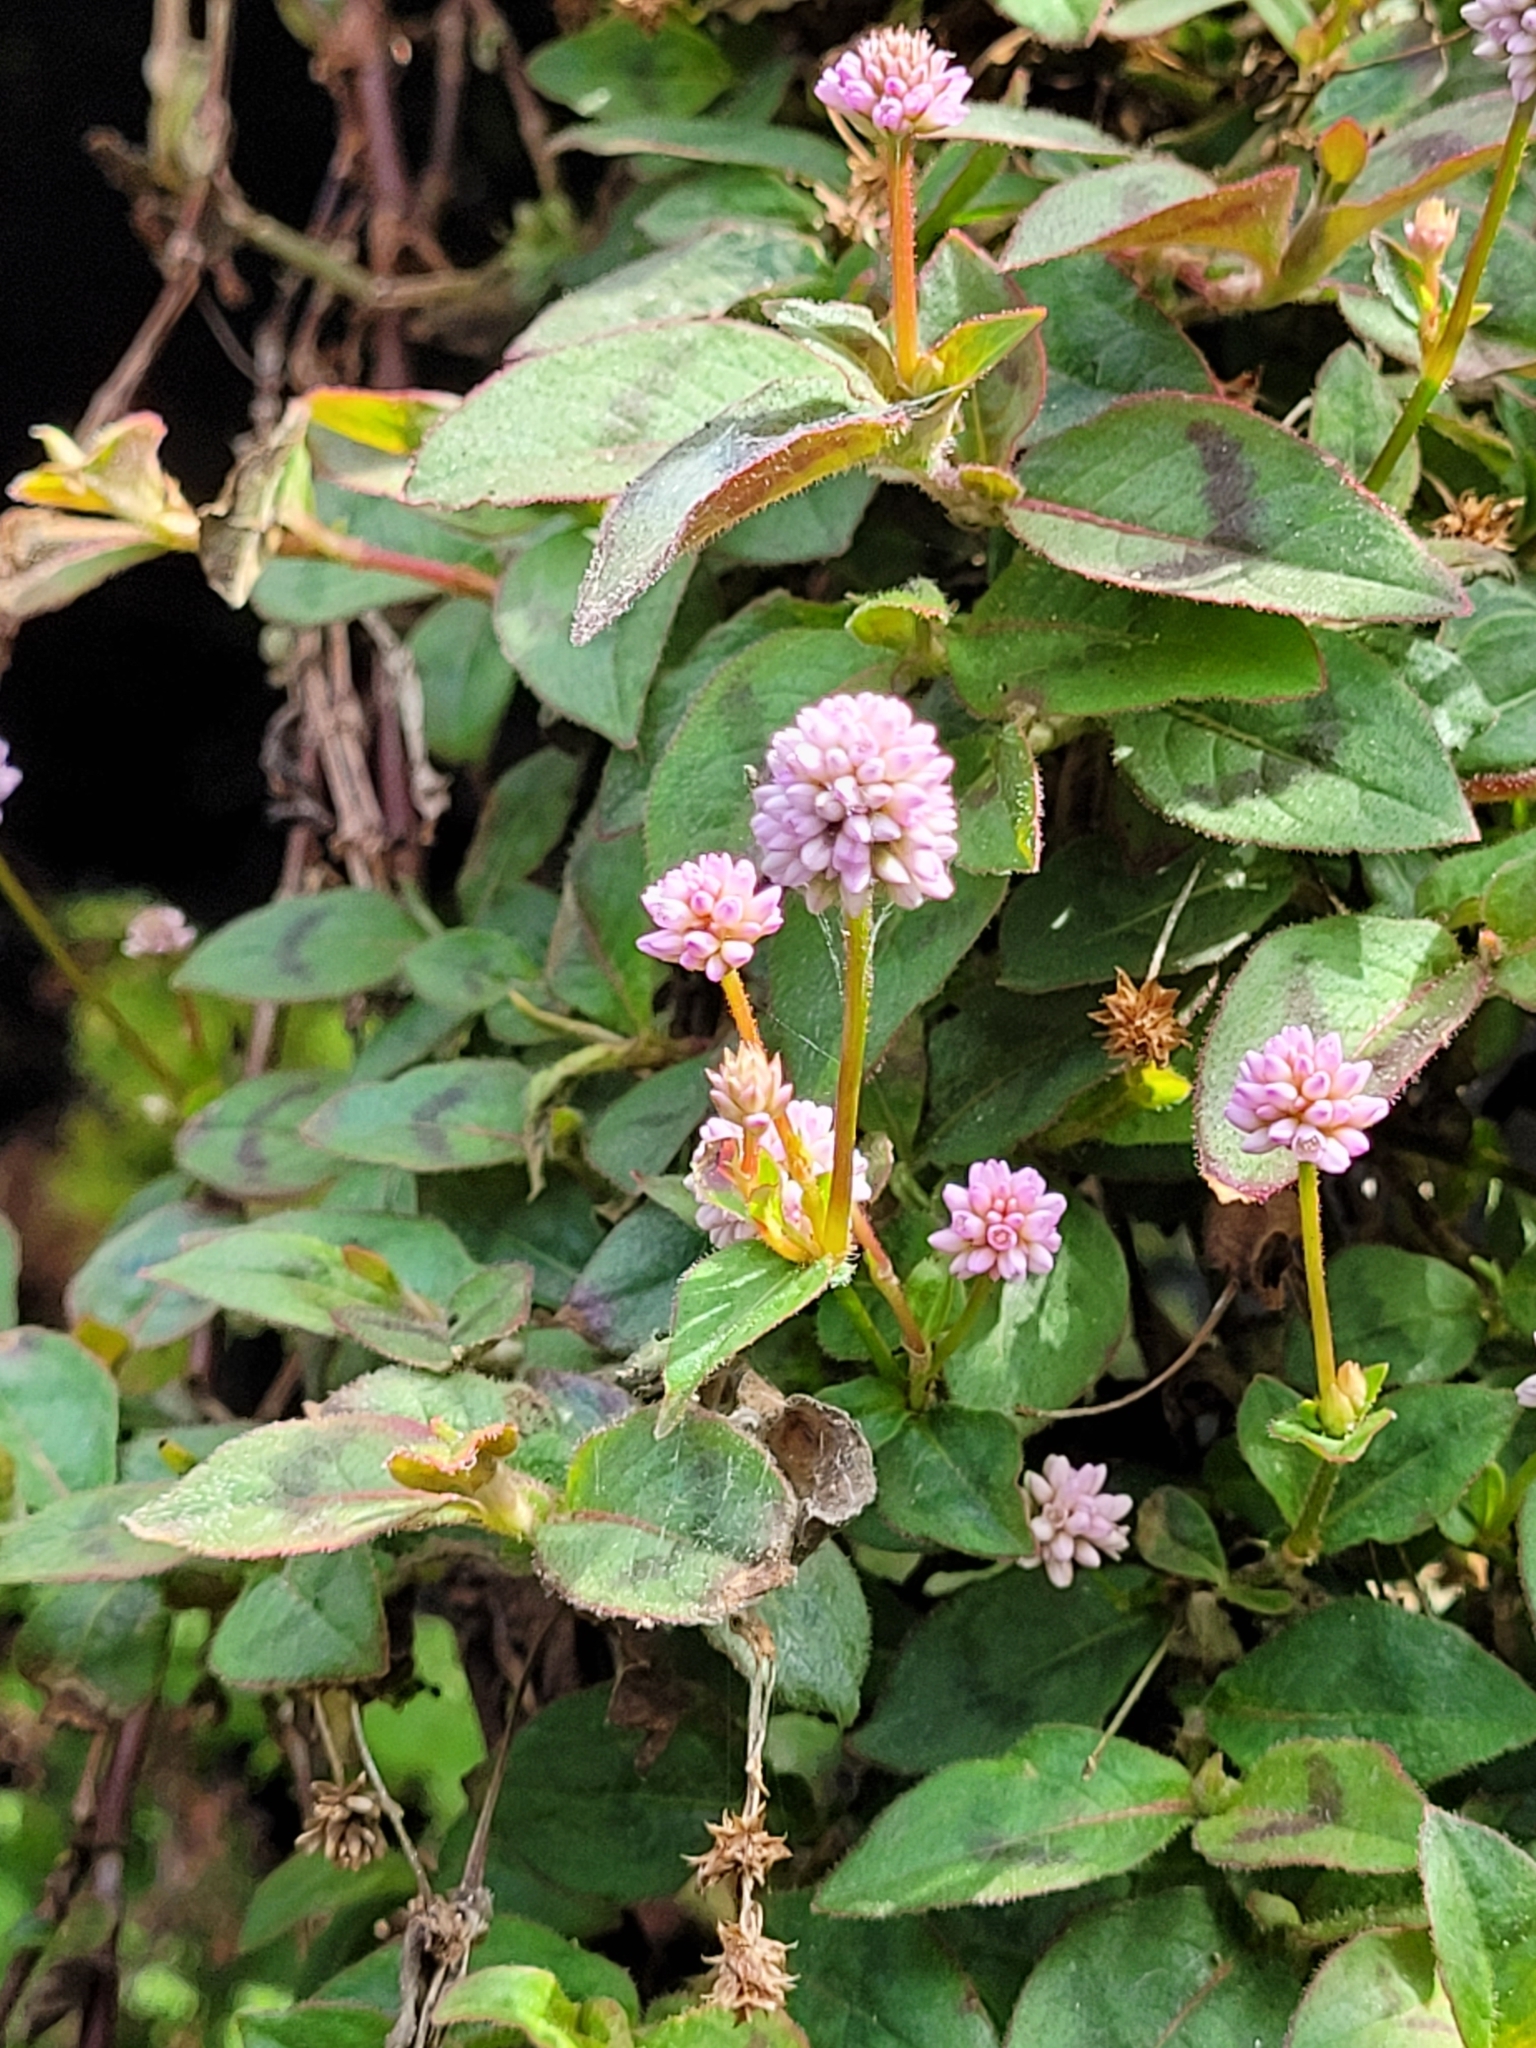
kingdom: Plantae
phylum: Tracheophyta
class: Magnoliopsida
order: Caryophyllales
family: Polygonaceae
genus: Persicaria
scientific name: Persicaria capitata
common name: Pinkhead smartweed
